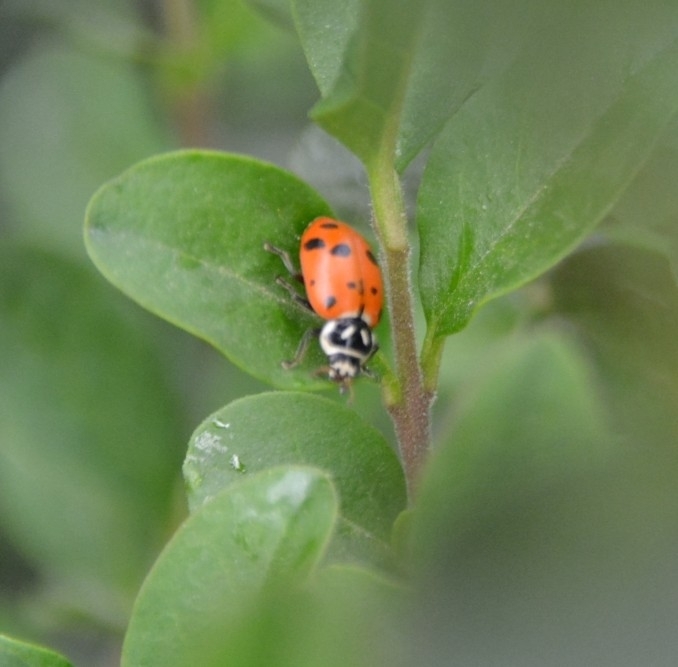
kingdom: Animalia
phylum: Arthropoda
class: Insecta
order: Coleoptera
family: Coccinellidae
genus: Hippodamia
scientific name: Hippodamia convergens
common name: Convergent lady beetle
